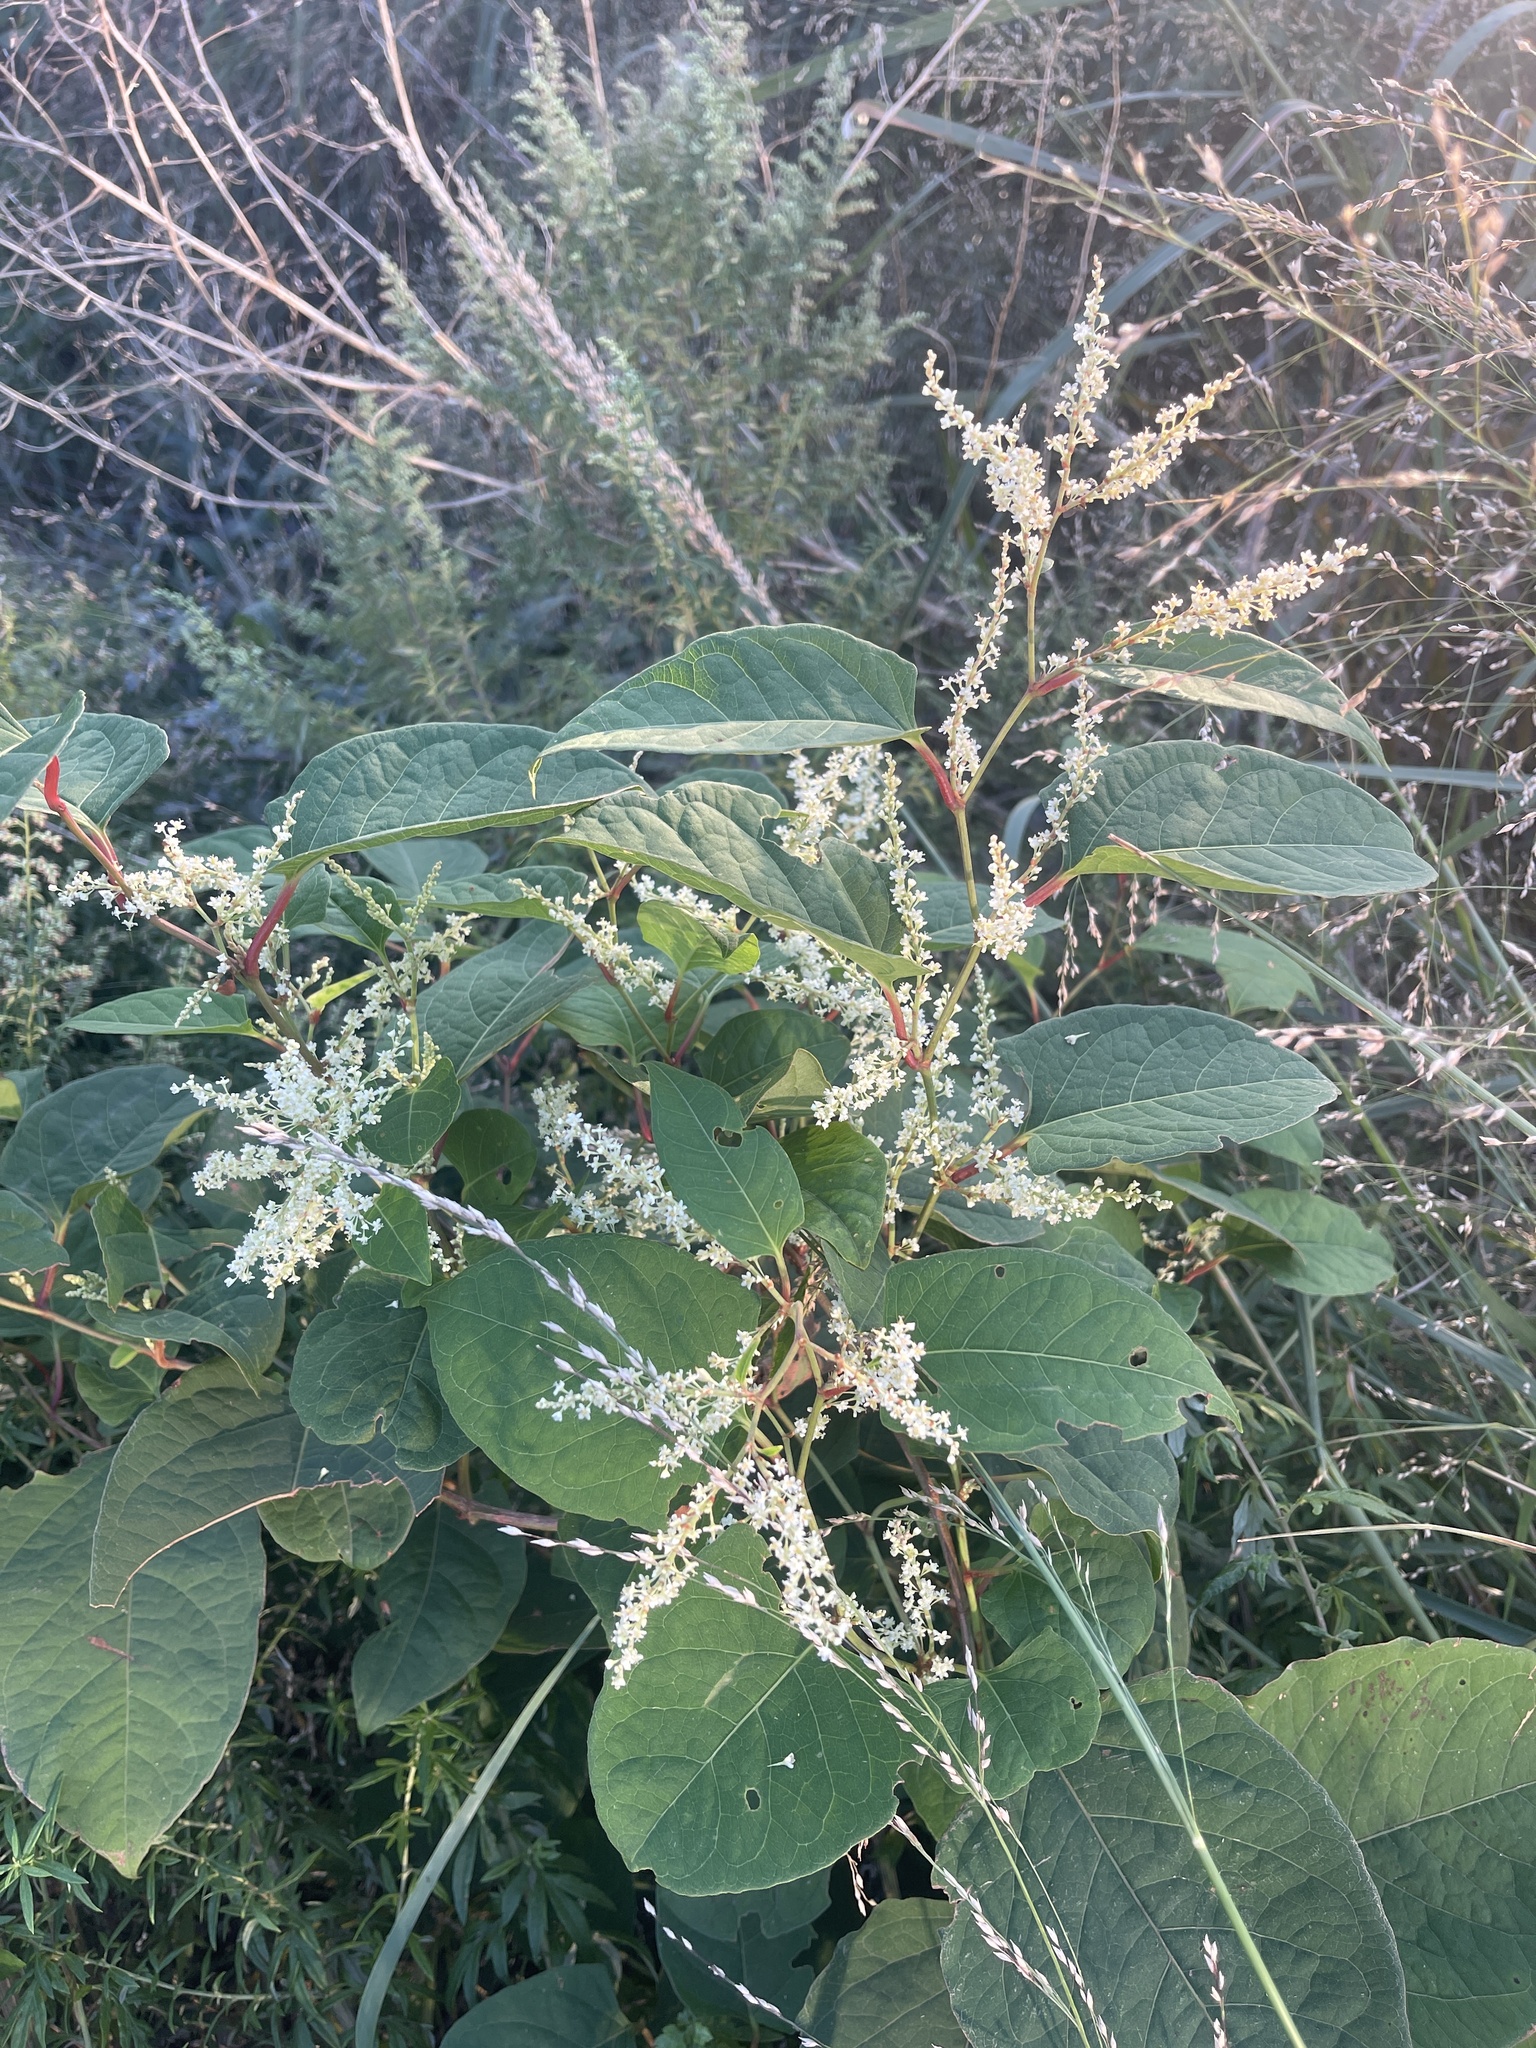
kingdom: Plantae
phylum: Tracheophyta
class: Magnoliopsida
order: Caryophyllales
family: Polygonaceae
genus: Reynoutria
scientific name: Reynoutria japonica
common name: Japanese knotweed
